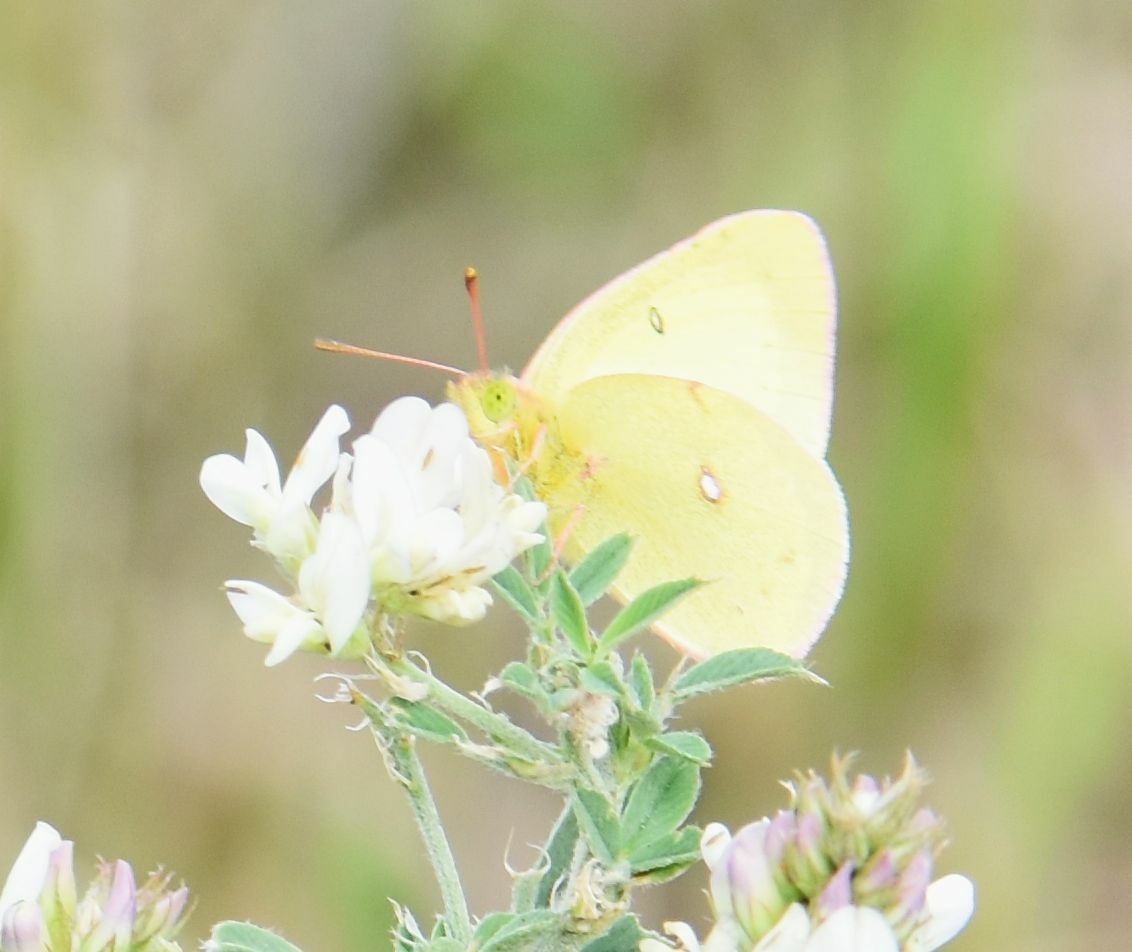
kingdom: Animalia
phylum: Arthropoda
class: Insecta
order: Lepidoptera
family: Pieridae
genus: Colias
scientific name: Colias philodice
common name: Clouded sulphur
